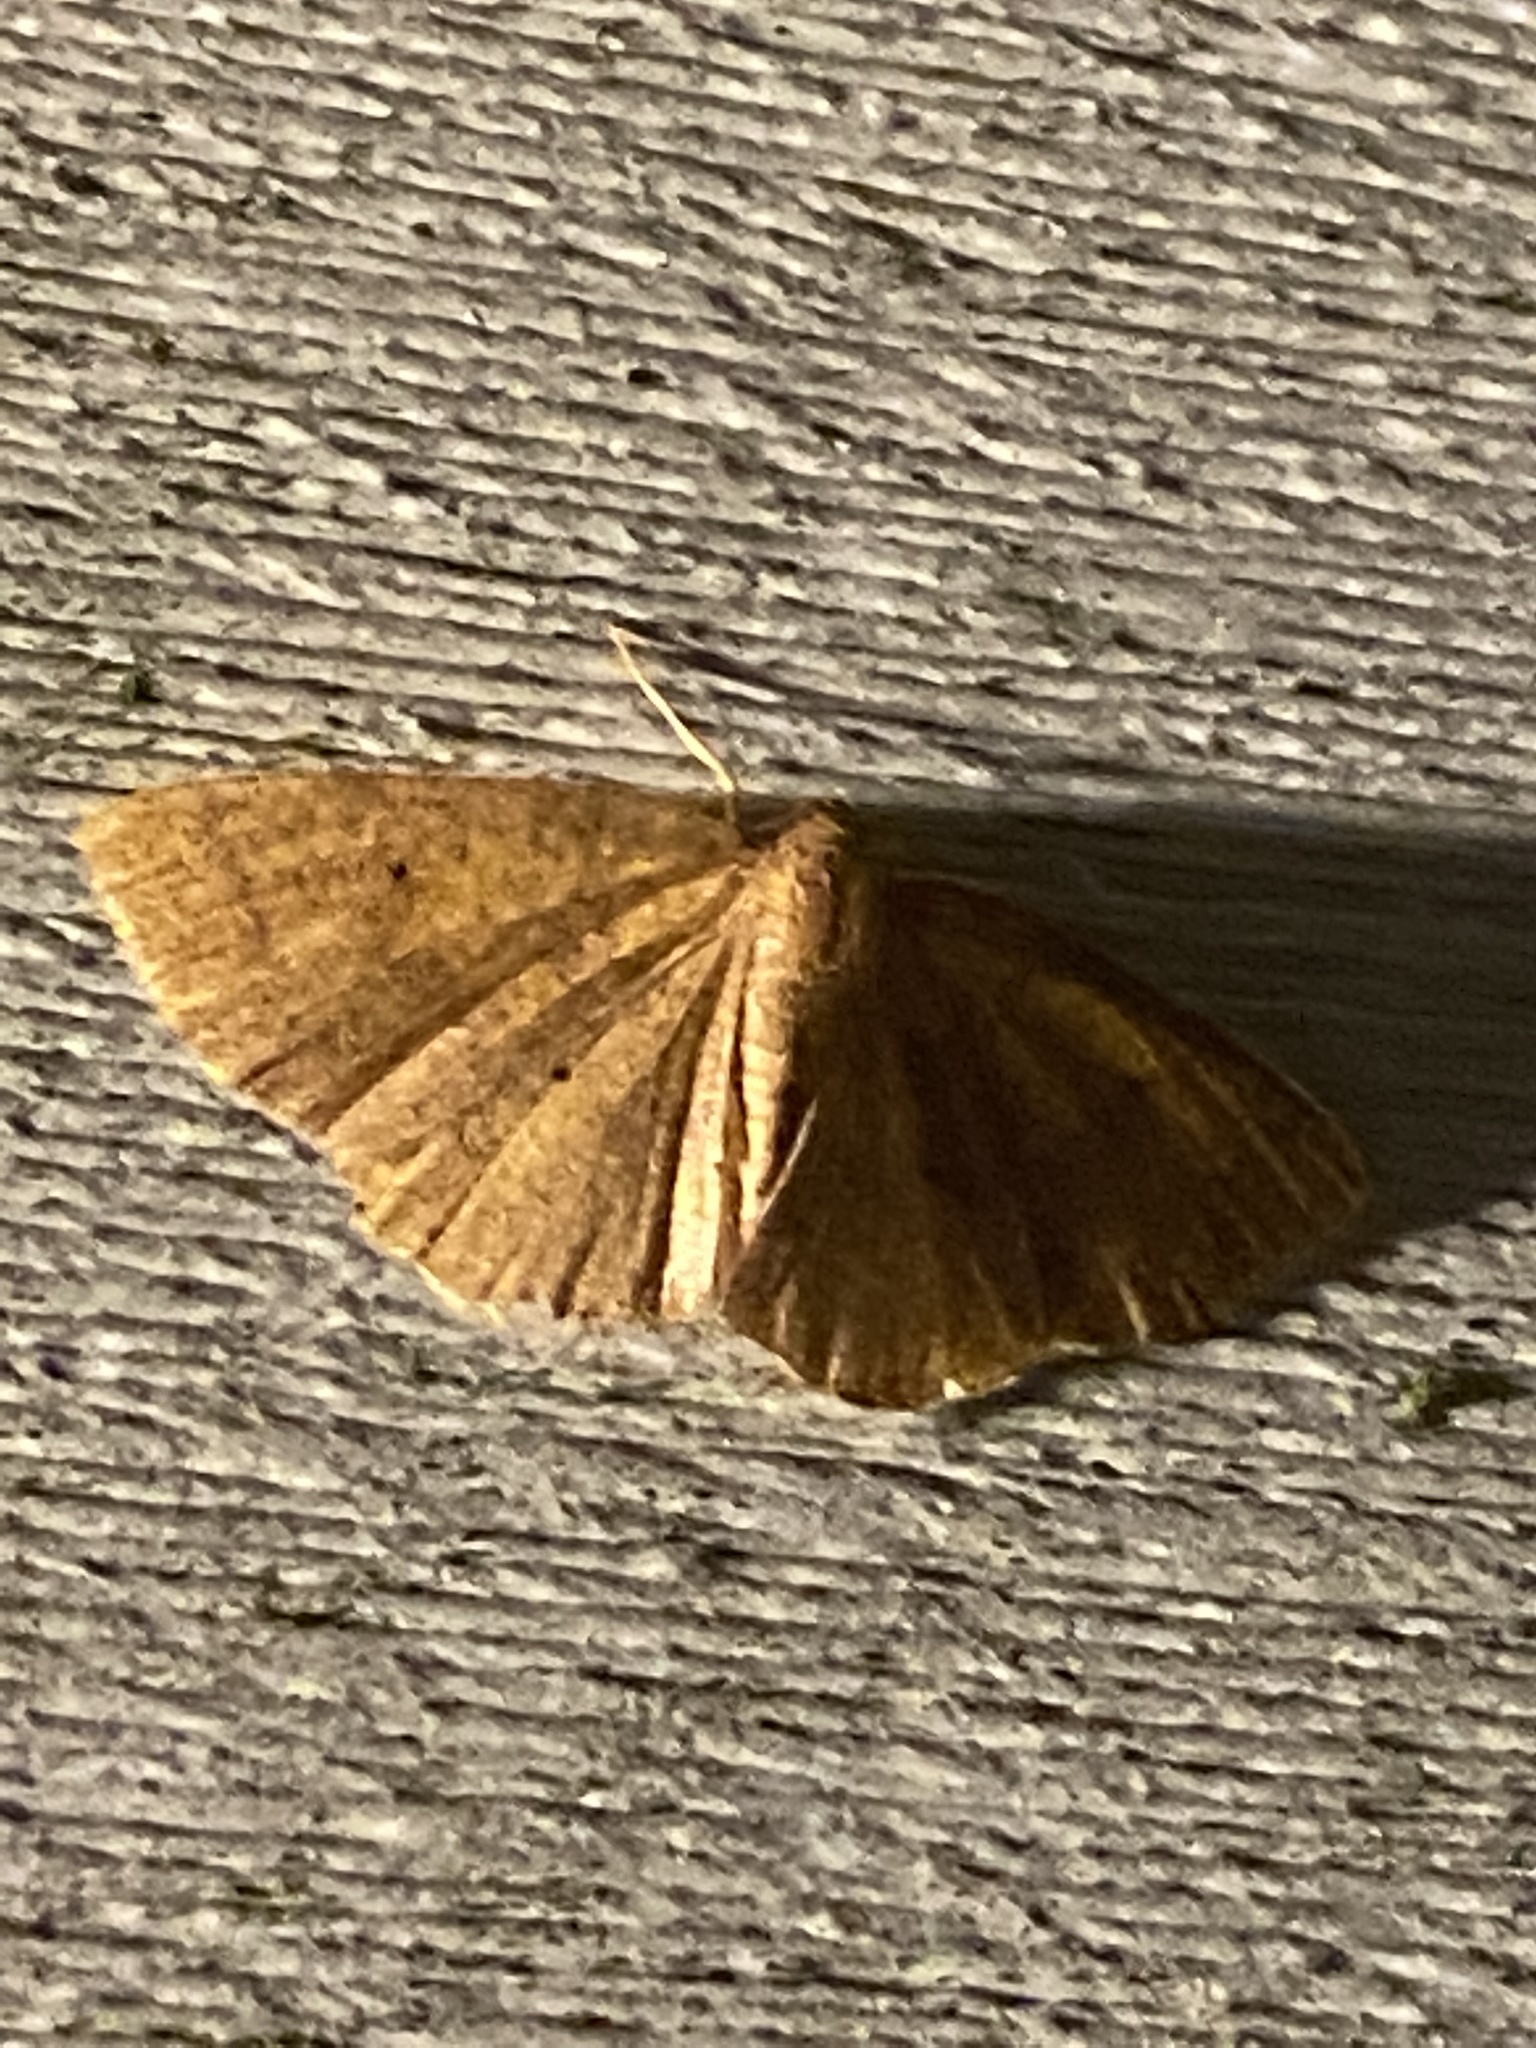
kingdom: Animalia
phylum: Arthropoda
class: Insecta
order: Lepidoptera
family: Geometridae
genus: Ilexia
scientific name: Ilexia intractata
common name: Black-dotted ruddy moth
